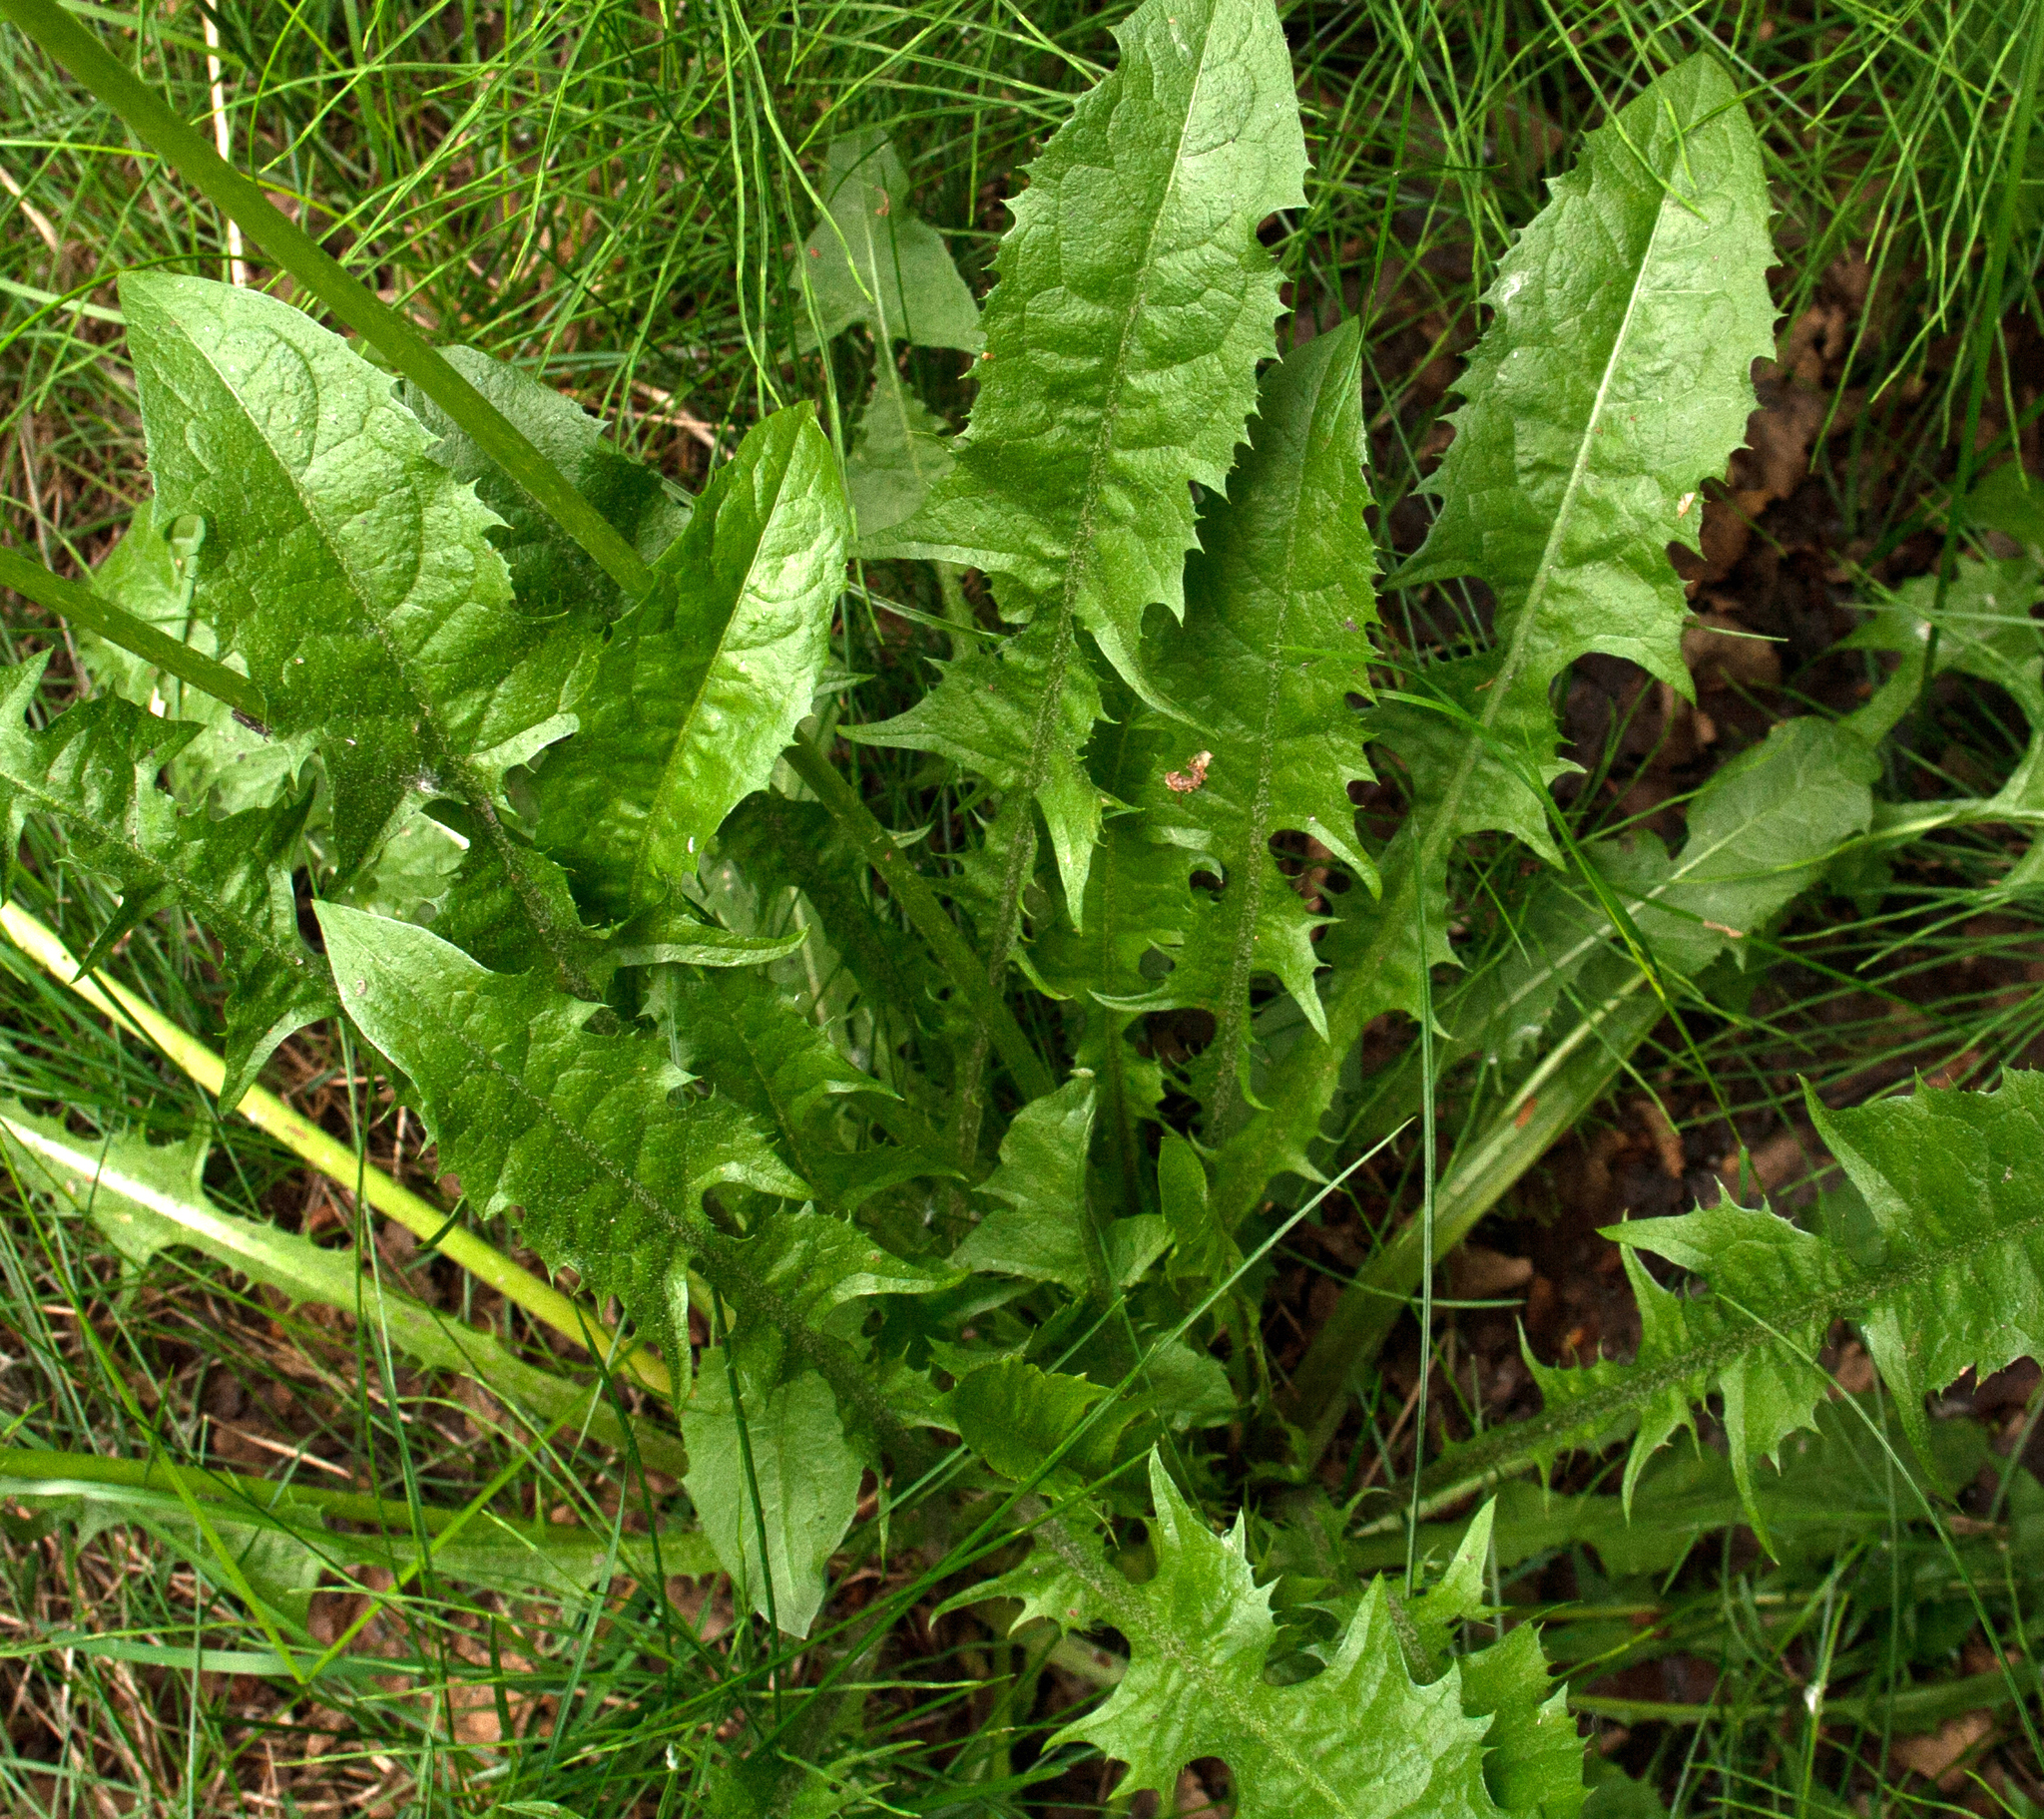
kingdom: Plantae
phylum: Tracheophyta
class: Magnoliopsida
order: Asterales
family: Asteraceae
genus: Taraxacum
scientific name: Taraxacum officinale
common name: Common dandelion
